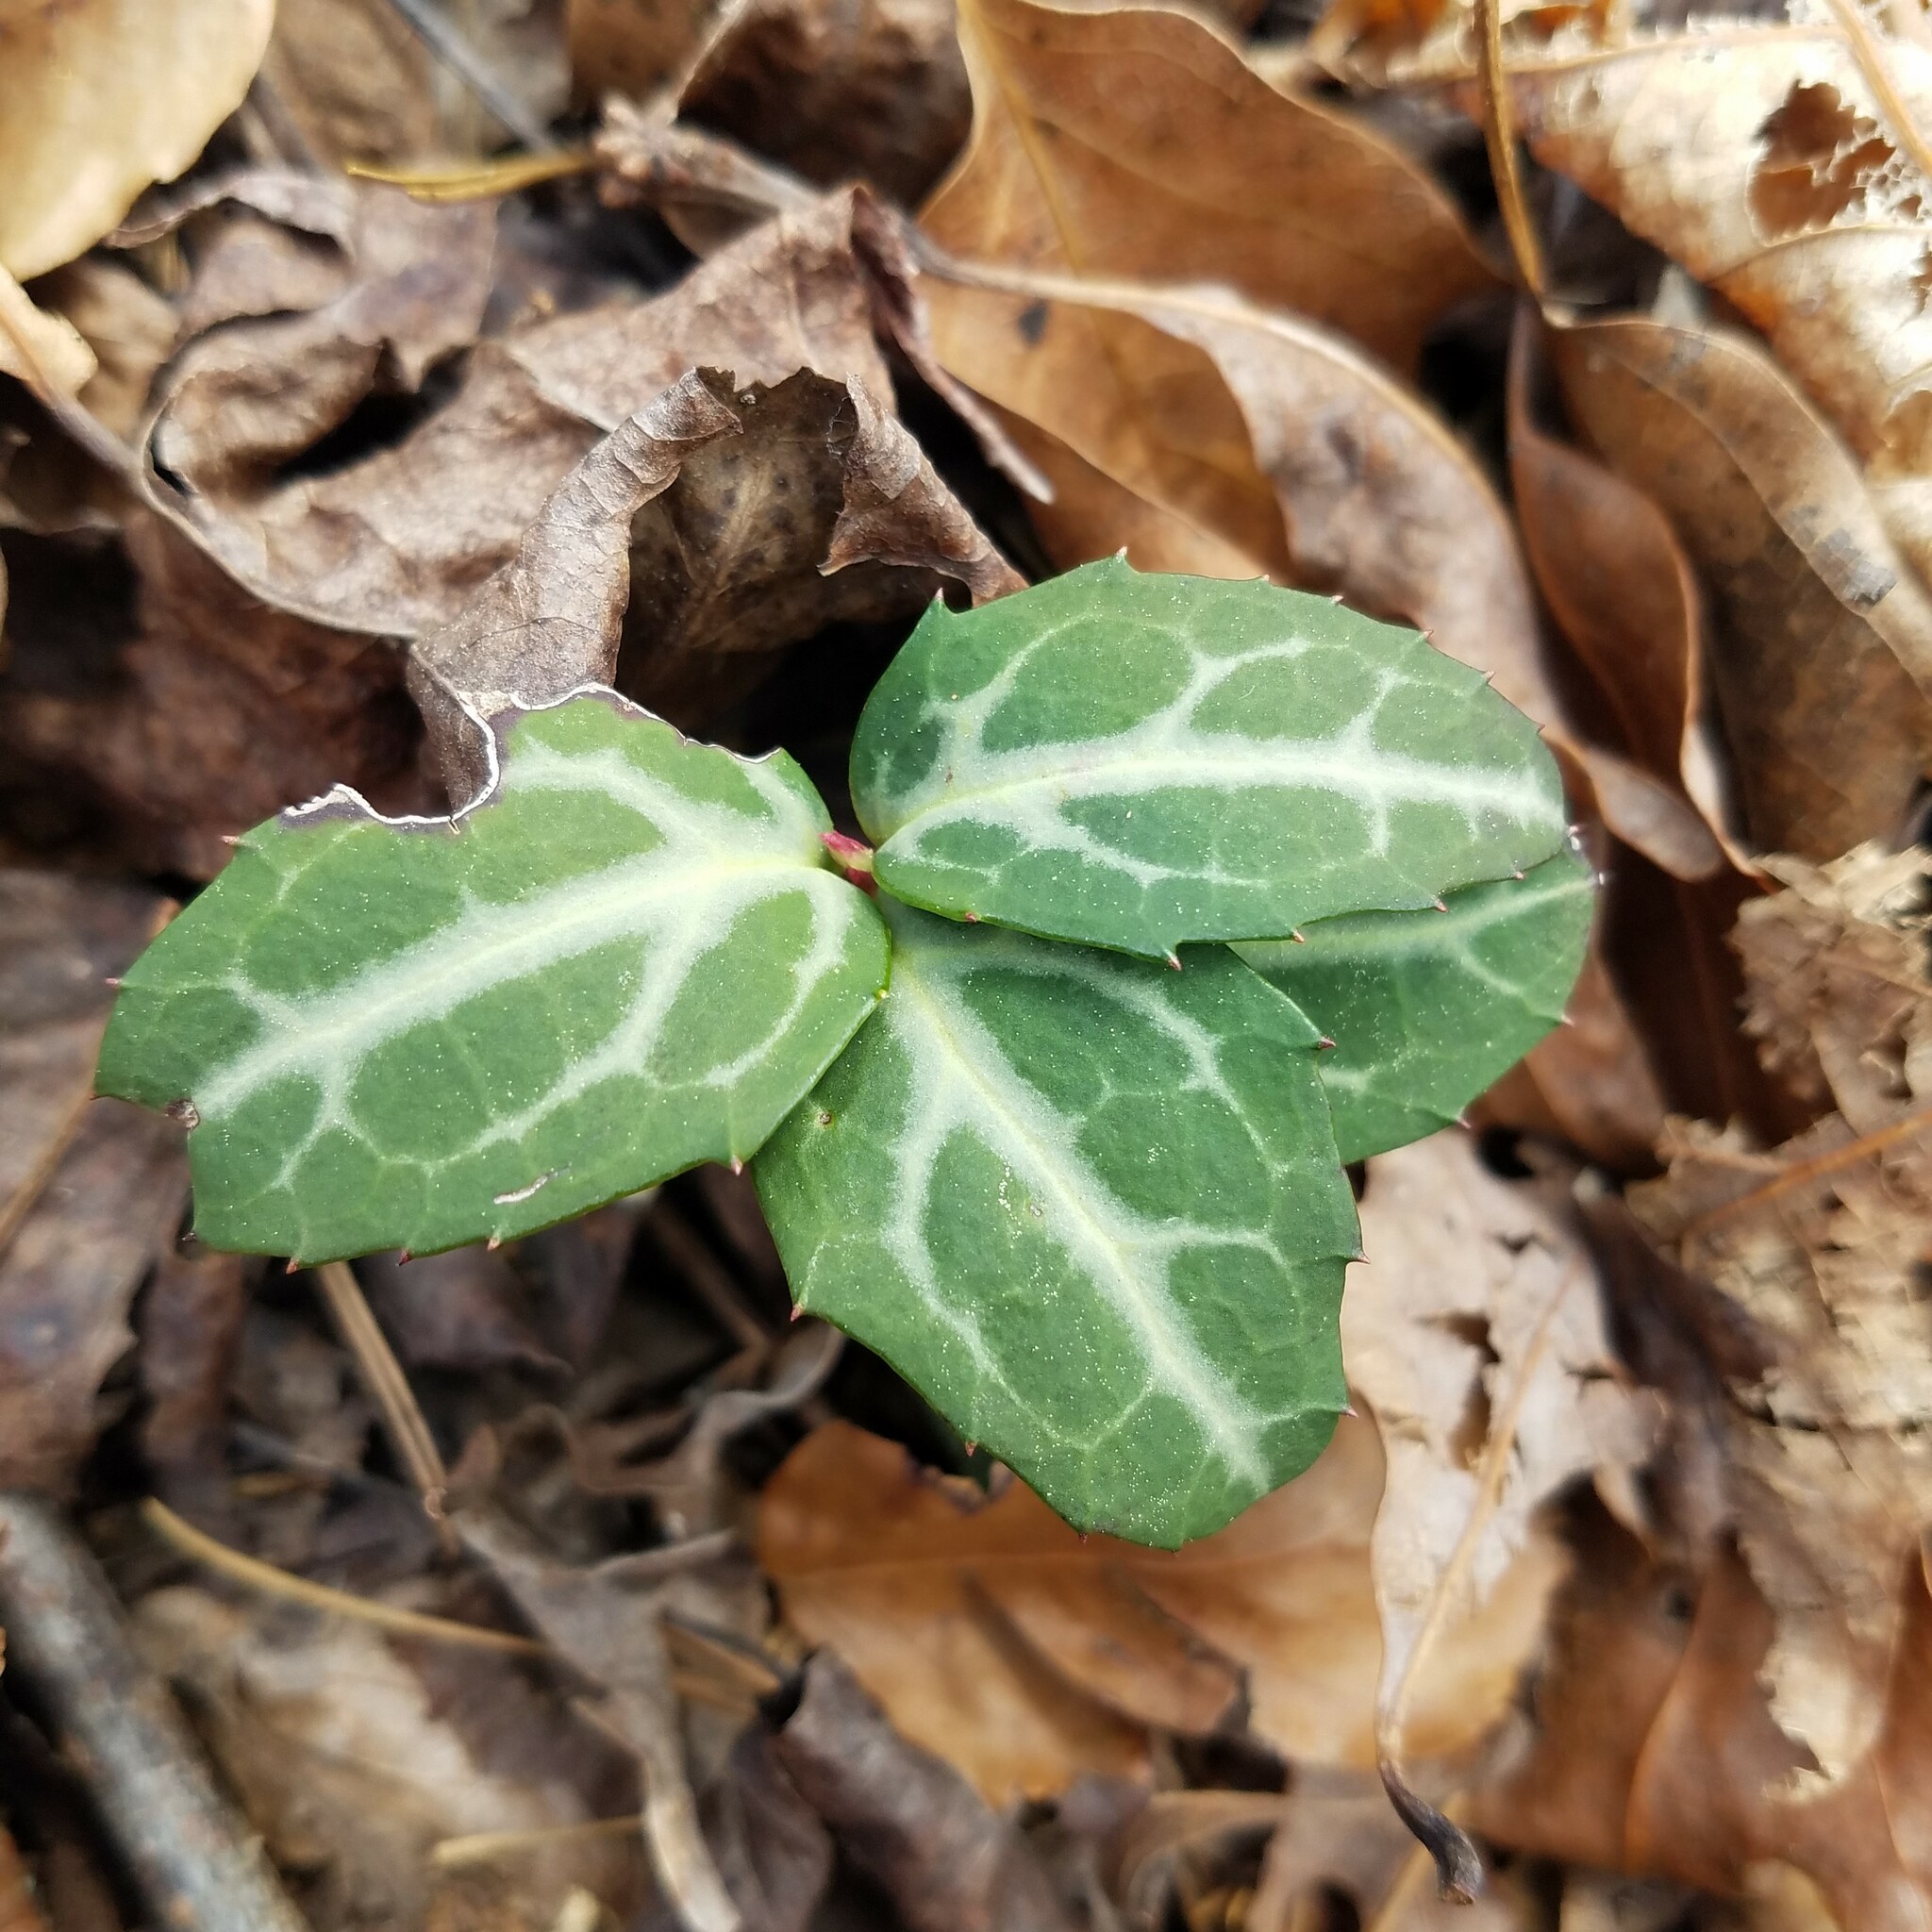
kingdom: Plantae
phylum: Tracheophyta
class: Magnoliopsida
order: Ericales
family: Ericaceae
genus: Chimaphila
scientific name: Chimaphila maculata
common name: Spotted pipsissewa
